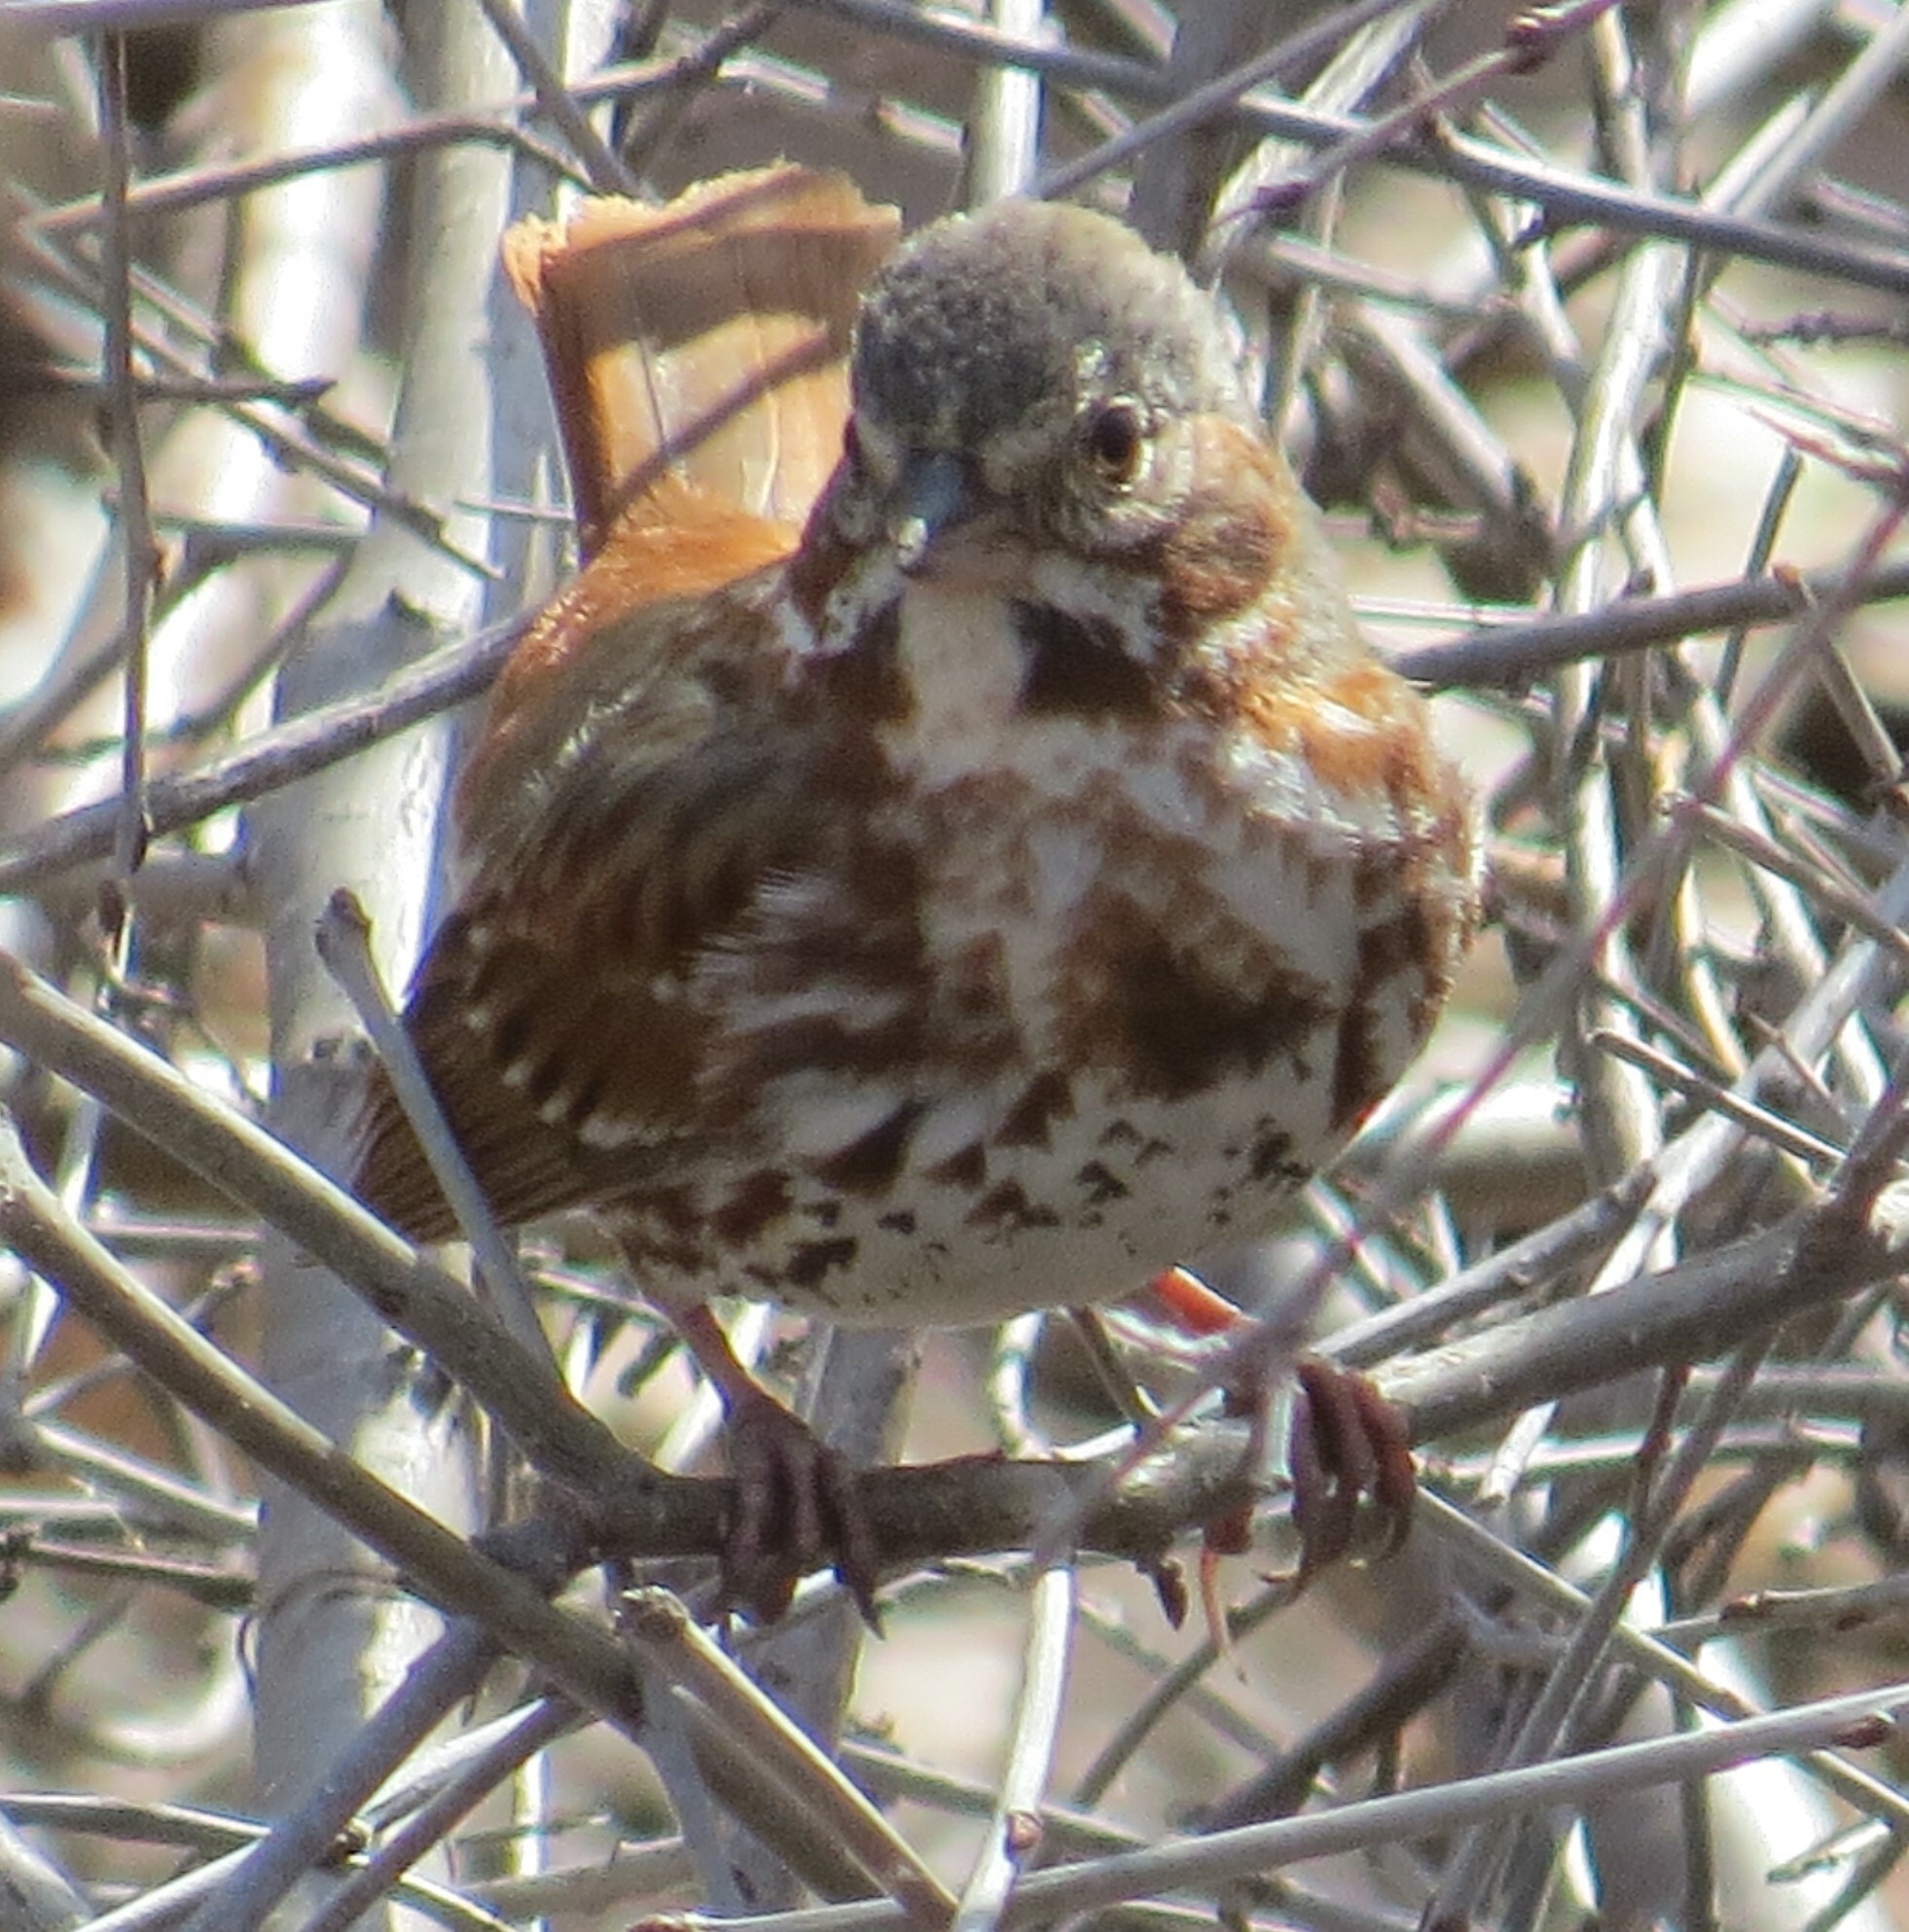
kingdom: Animalia
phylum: Chordata
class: Aves
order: Passeriformes
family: Passerellidae
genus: Passerella
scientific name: Passerella iliaca
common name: Fox sparrow
